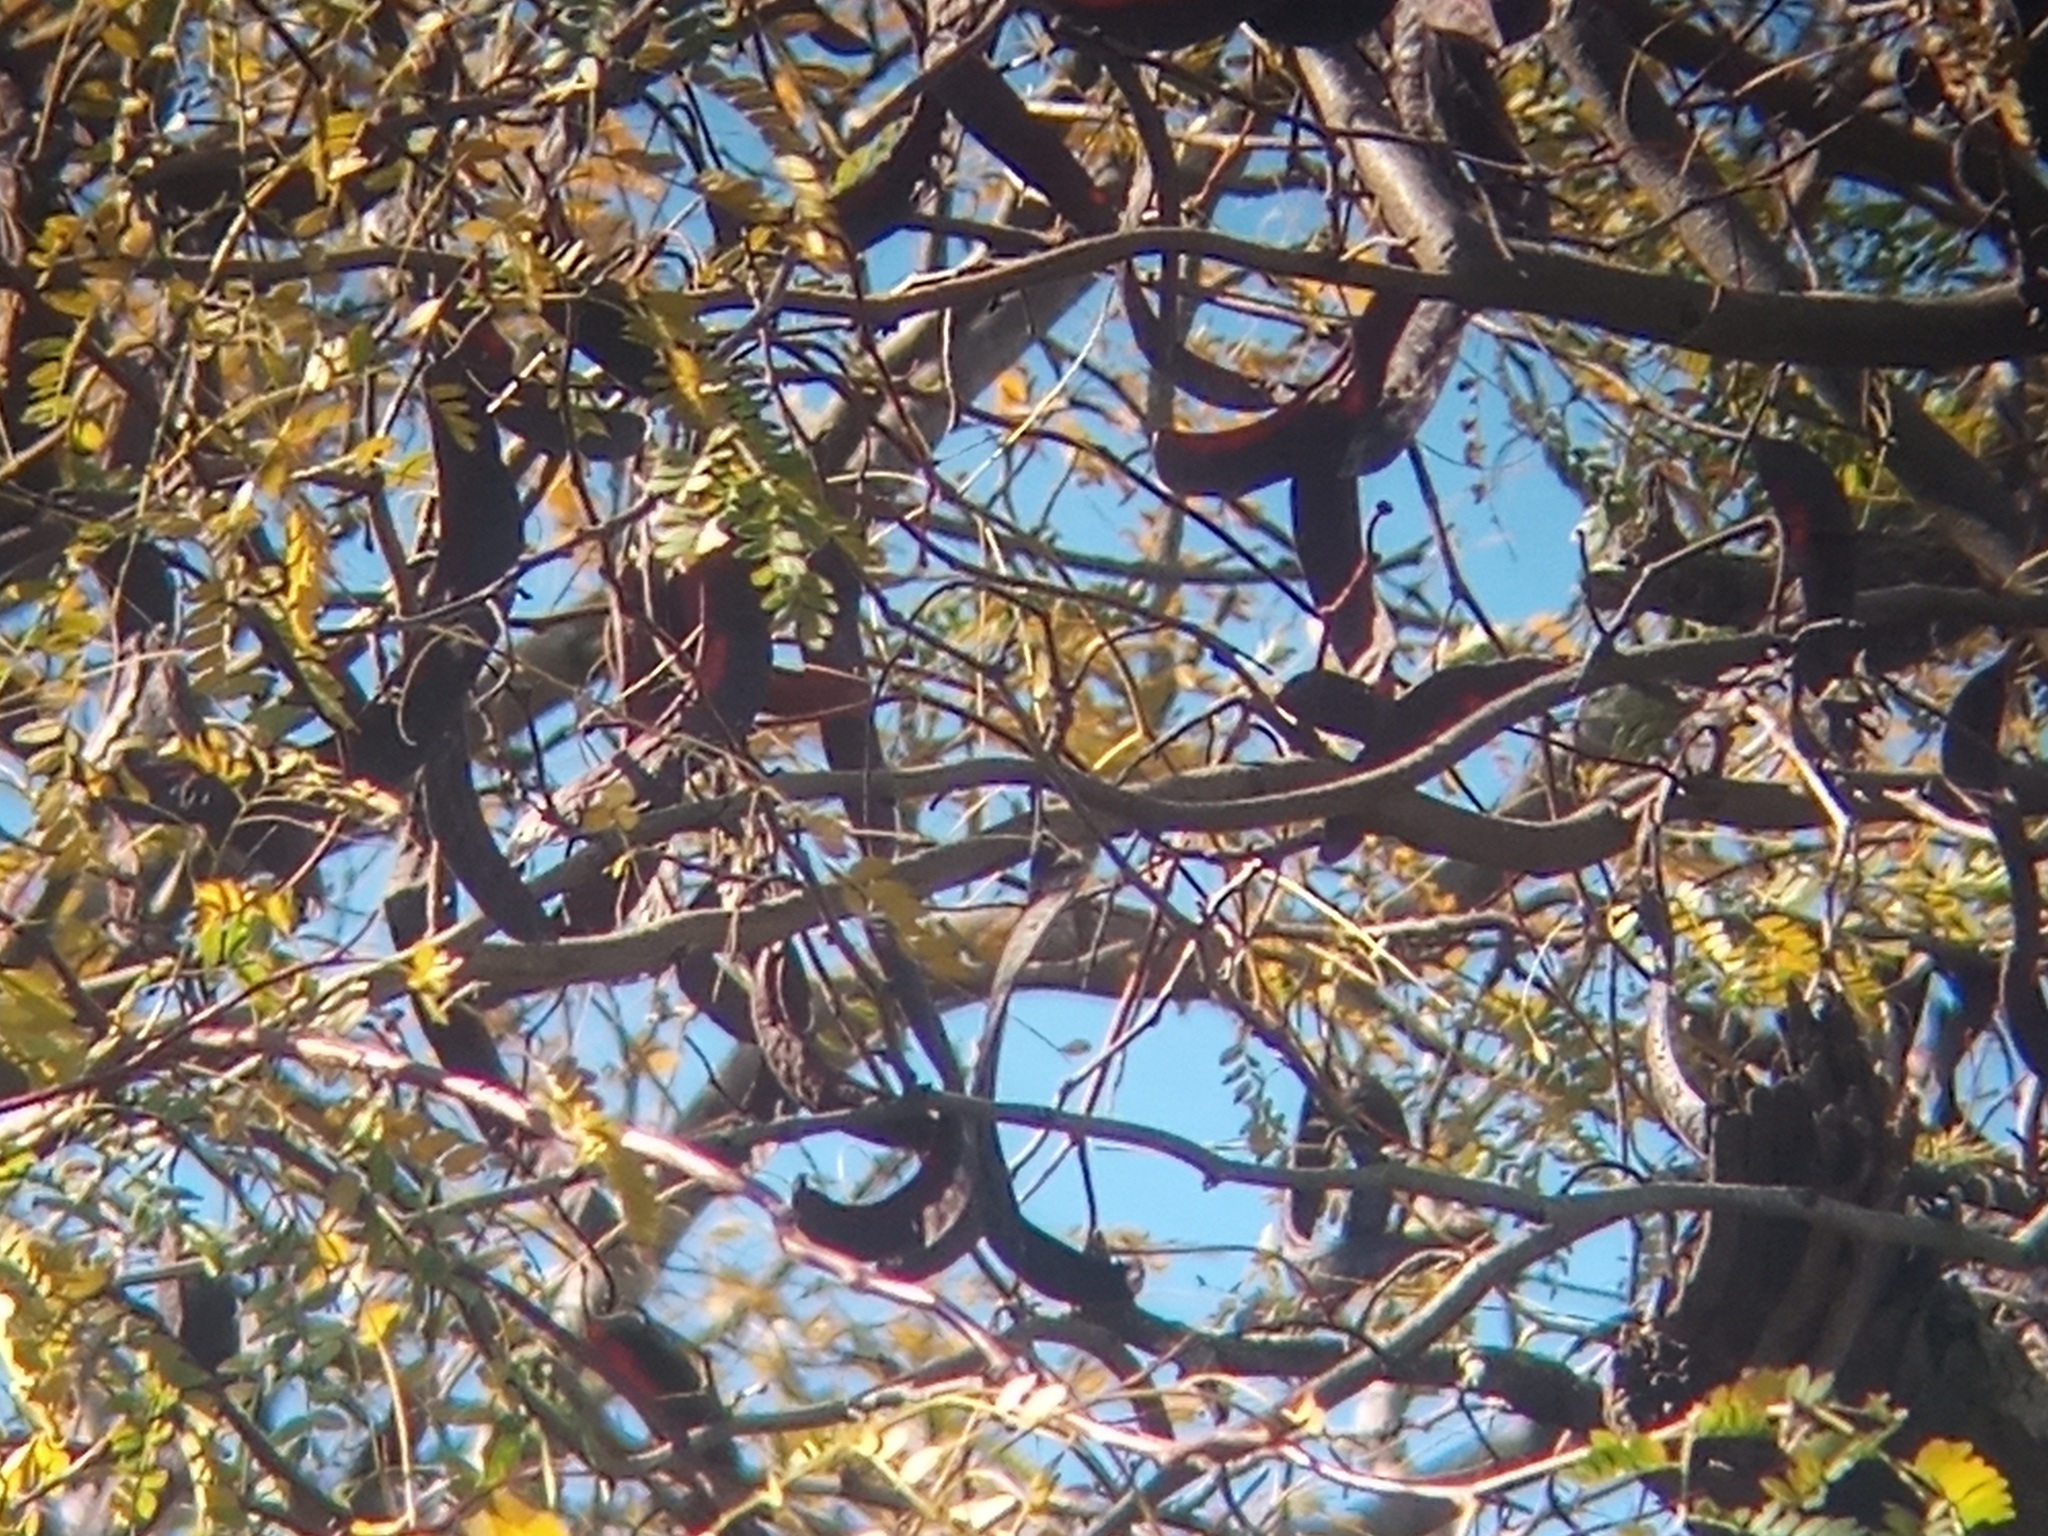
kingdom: Plantae
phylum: Tracheophyta
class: Magnoliopsida
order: Fabales
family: Fabaceae
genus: Gleditsia
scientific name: Gleditsia triacanthos
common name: Common honeylocust
